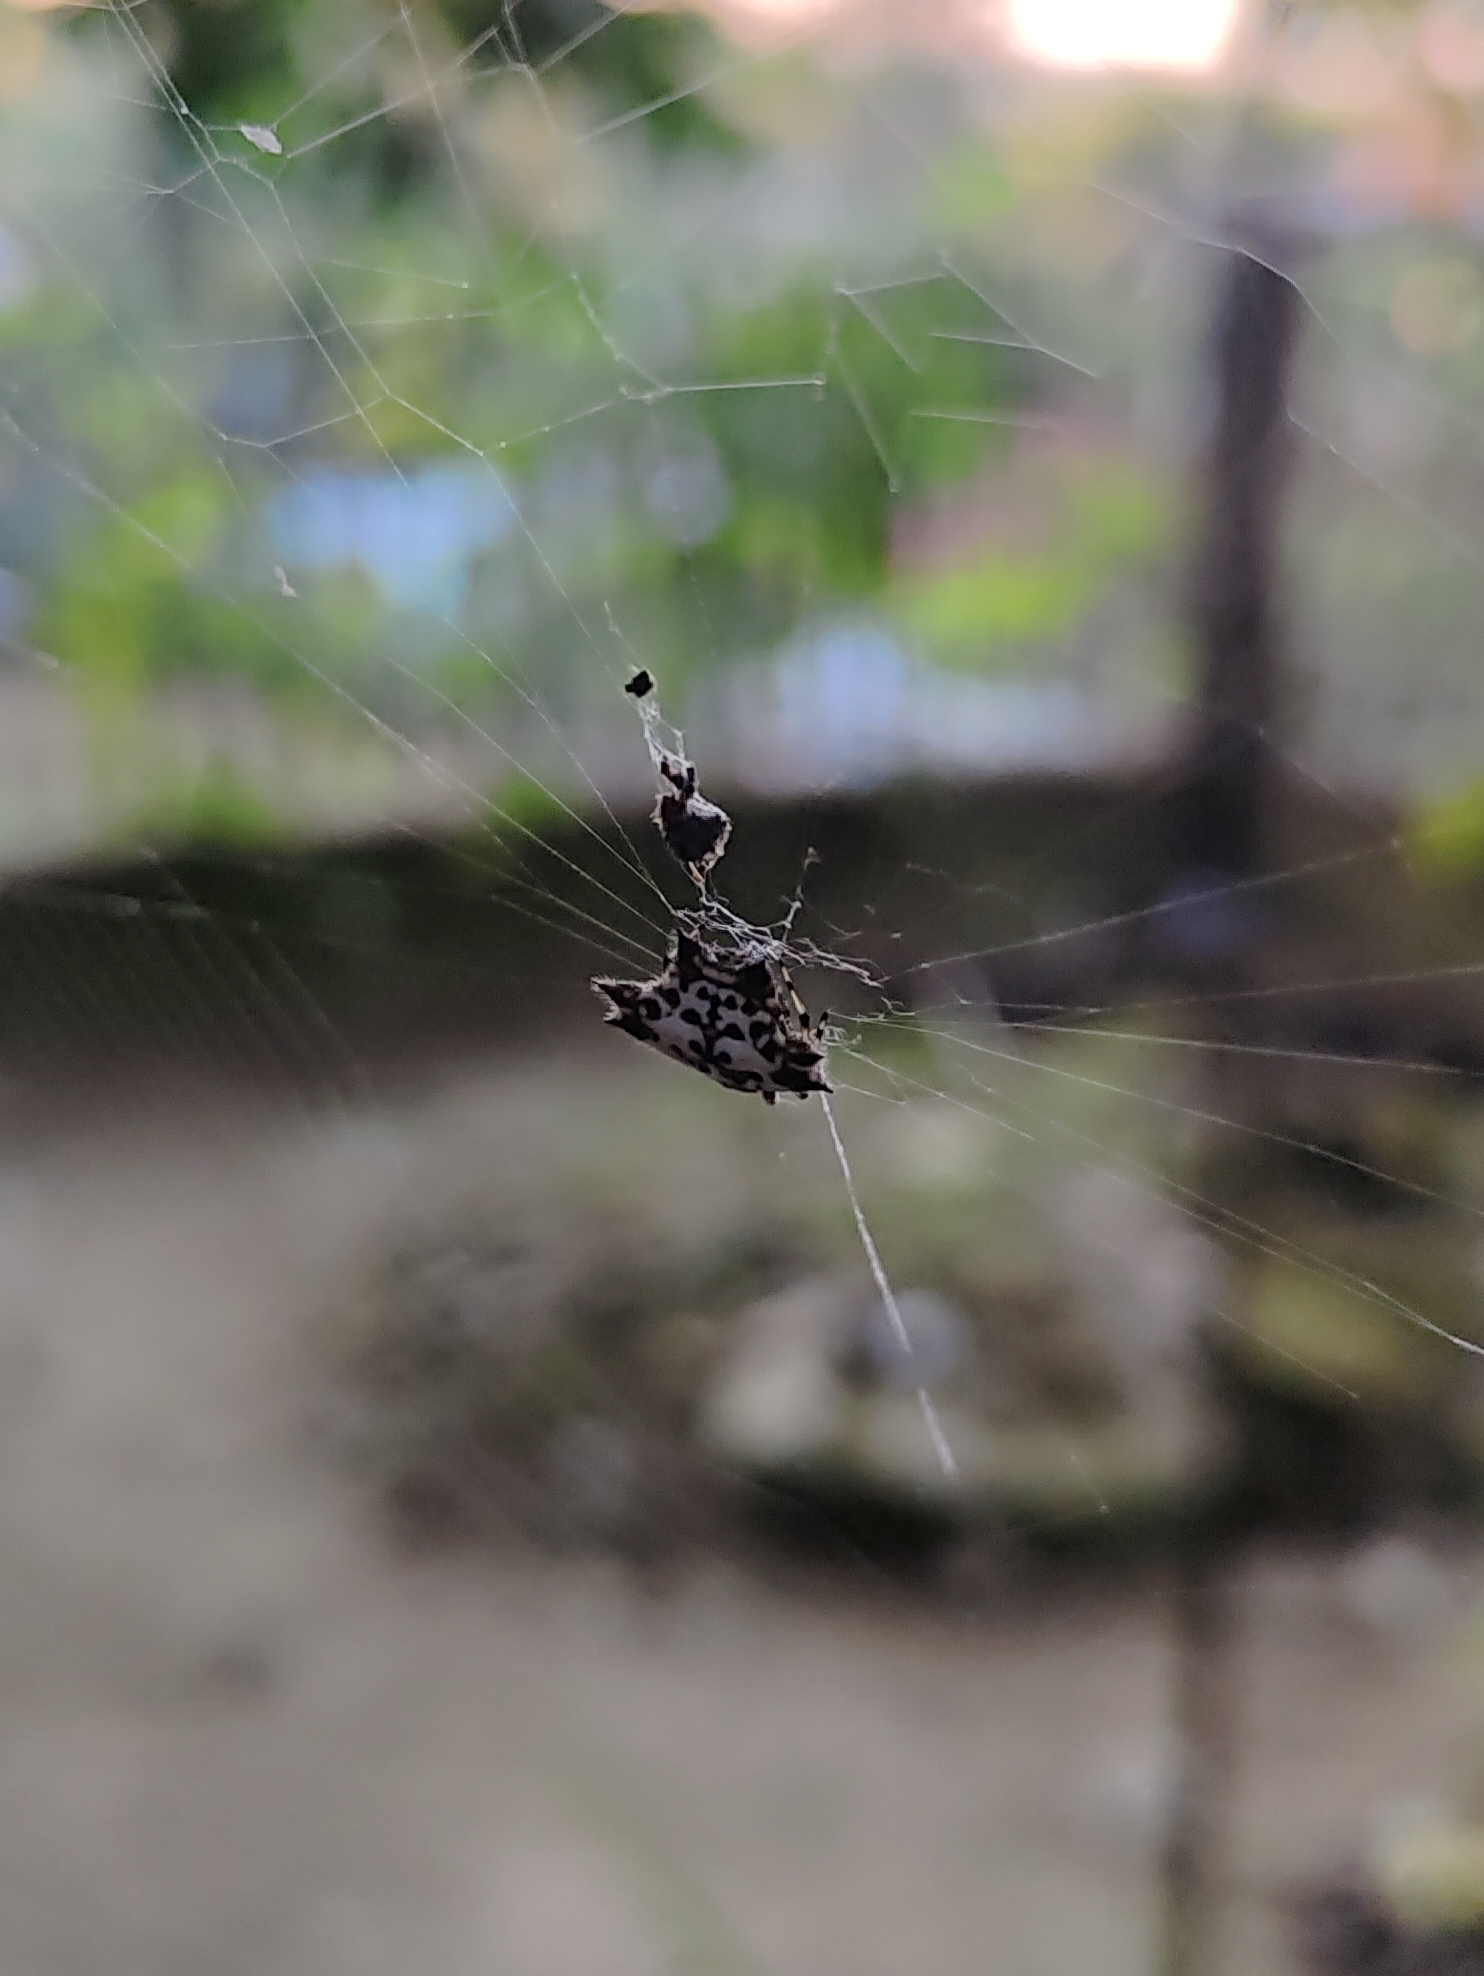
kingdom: Animalia
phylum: Arthropoda
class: Arachnida
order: Araneae
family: Araneidae
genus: Gasteracantha
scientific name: Gasteracantha kuhli
